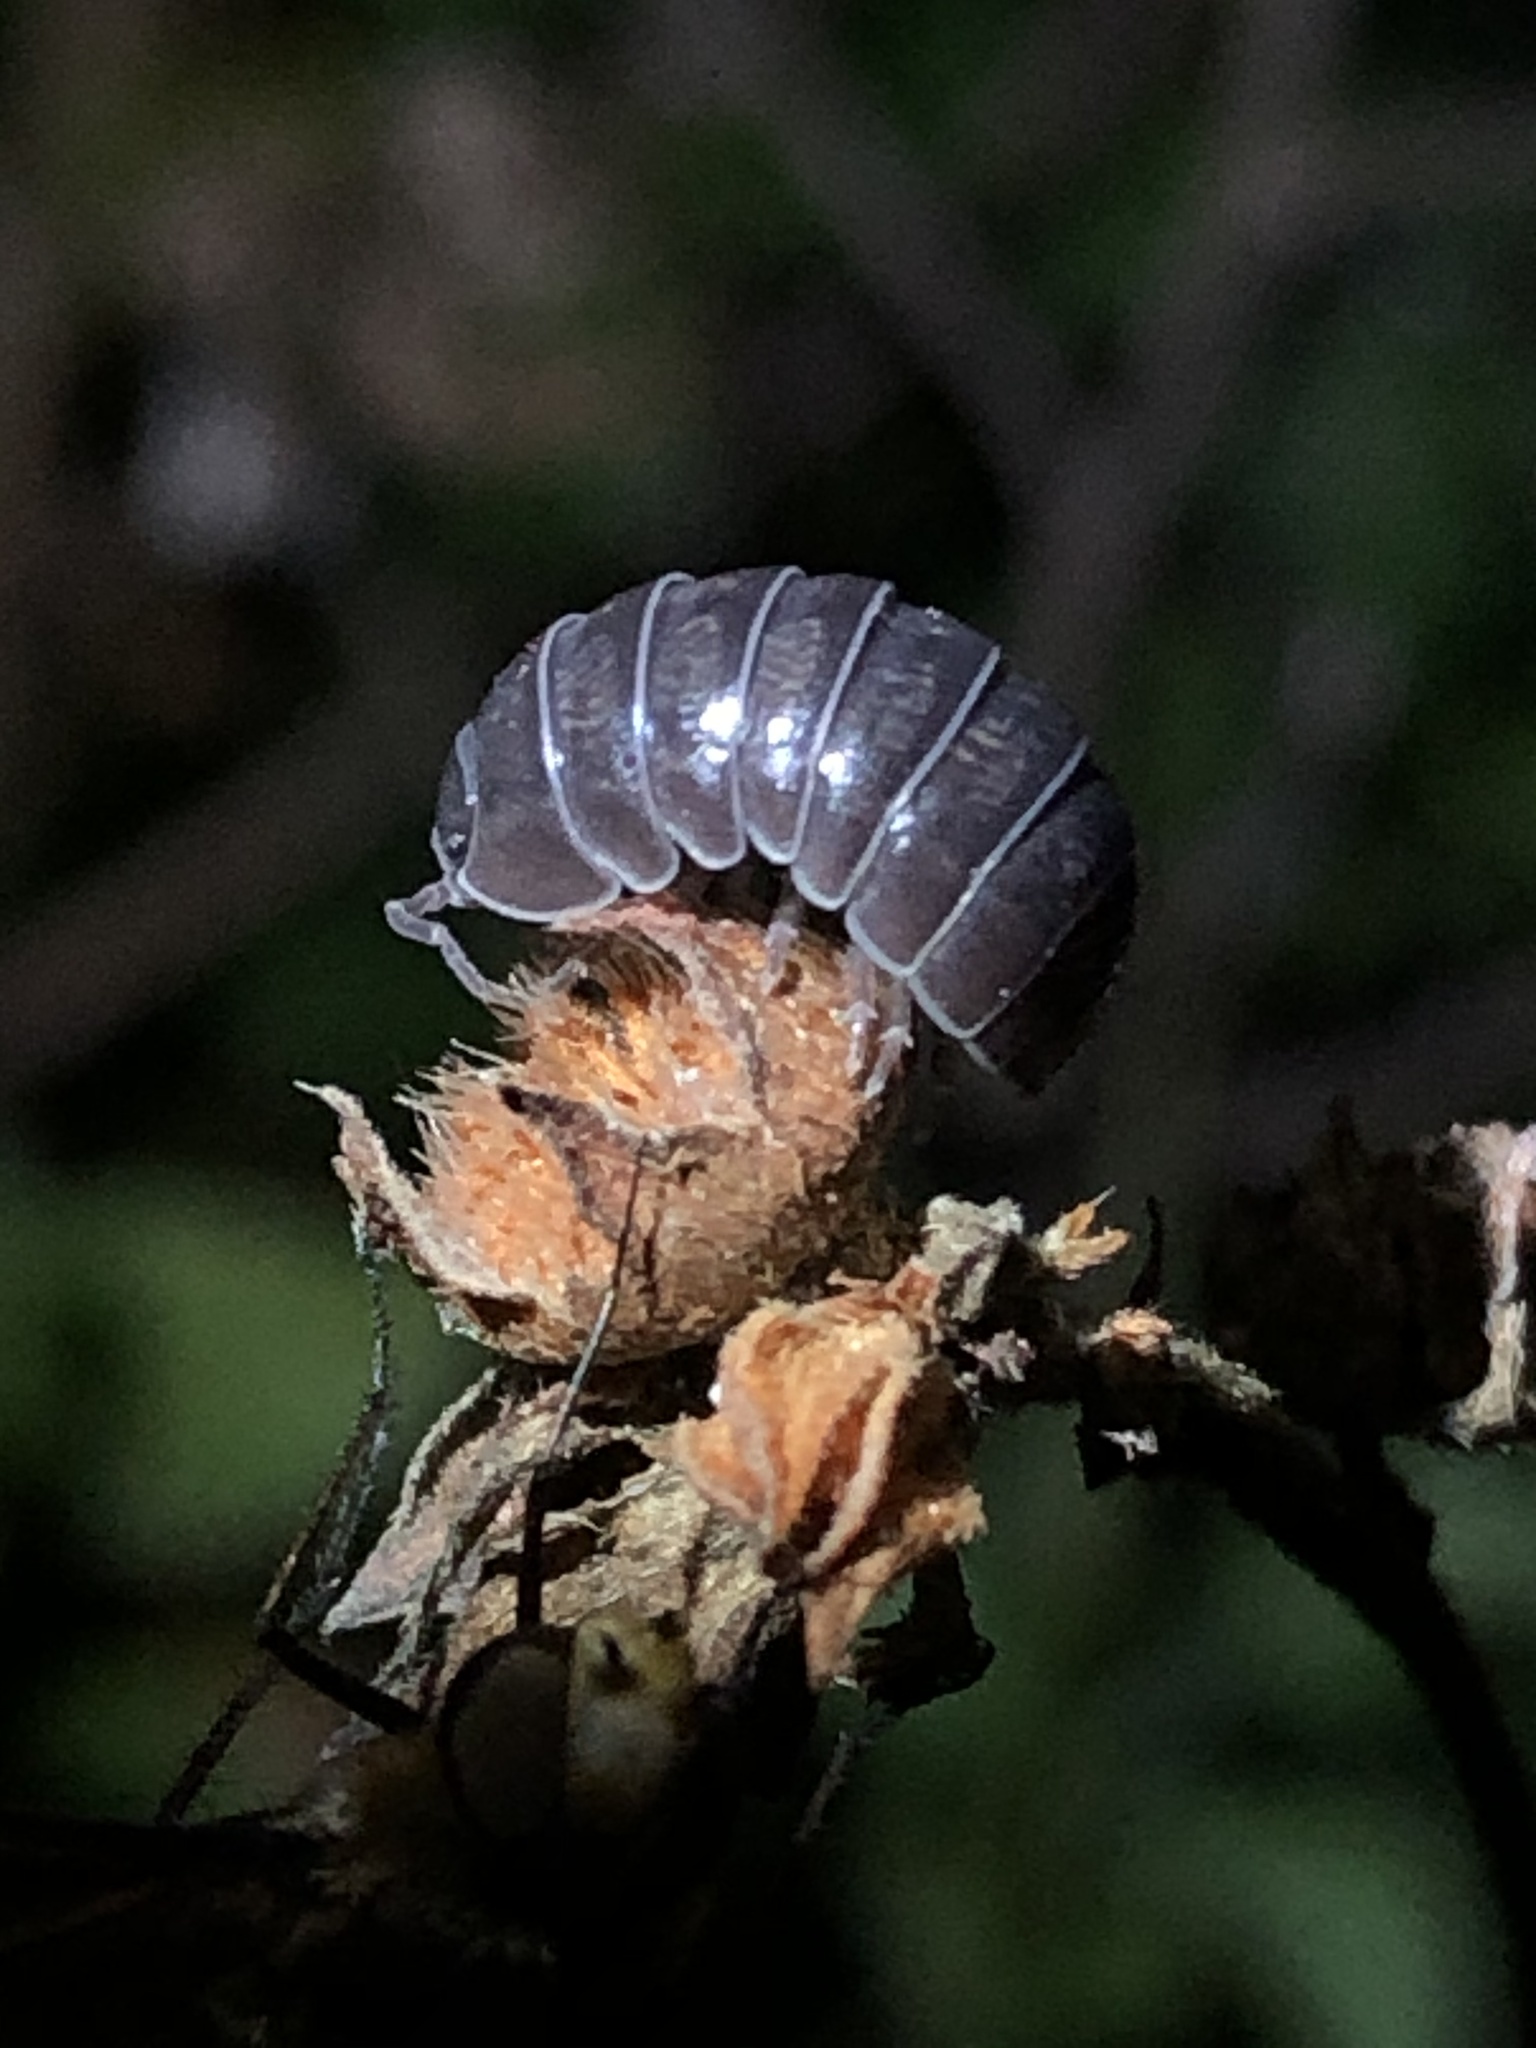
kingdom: Animalia
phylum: Arthropoda
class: Malacostraca
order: Isopoda
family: Armadillidiidae
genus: Armadillidium
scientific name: Armadillidium vulgare
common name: Common pill woodlouse
